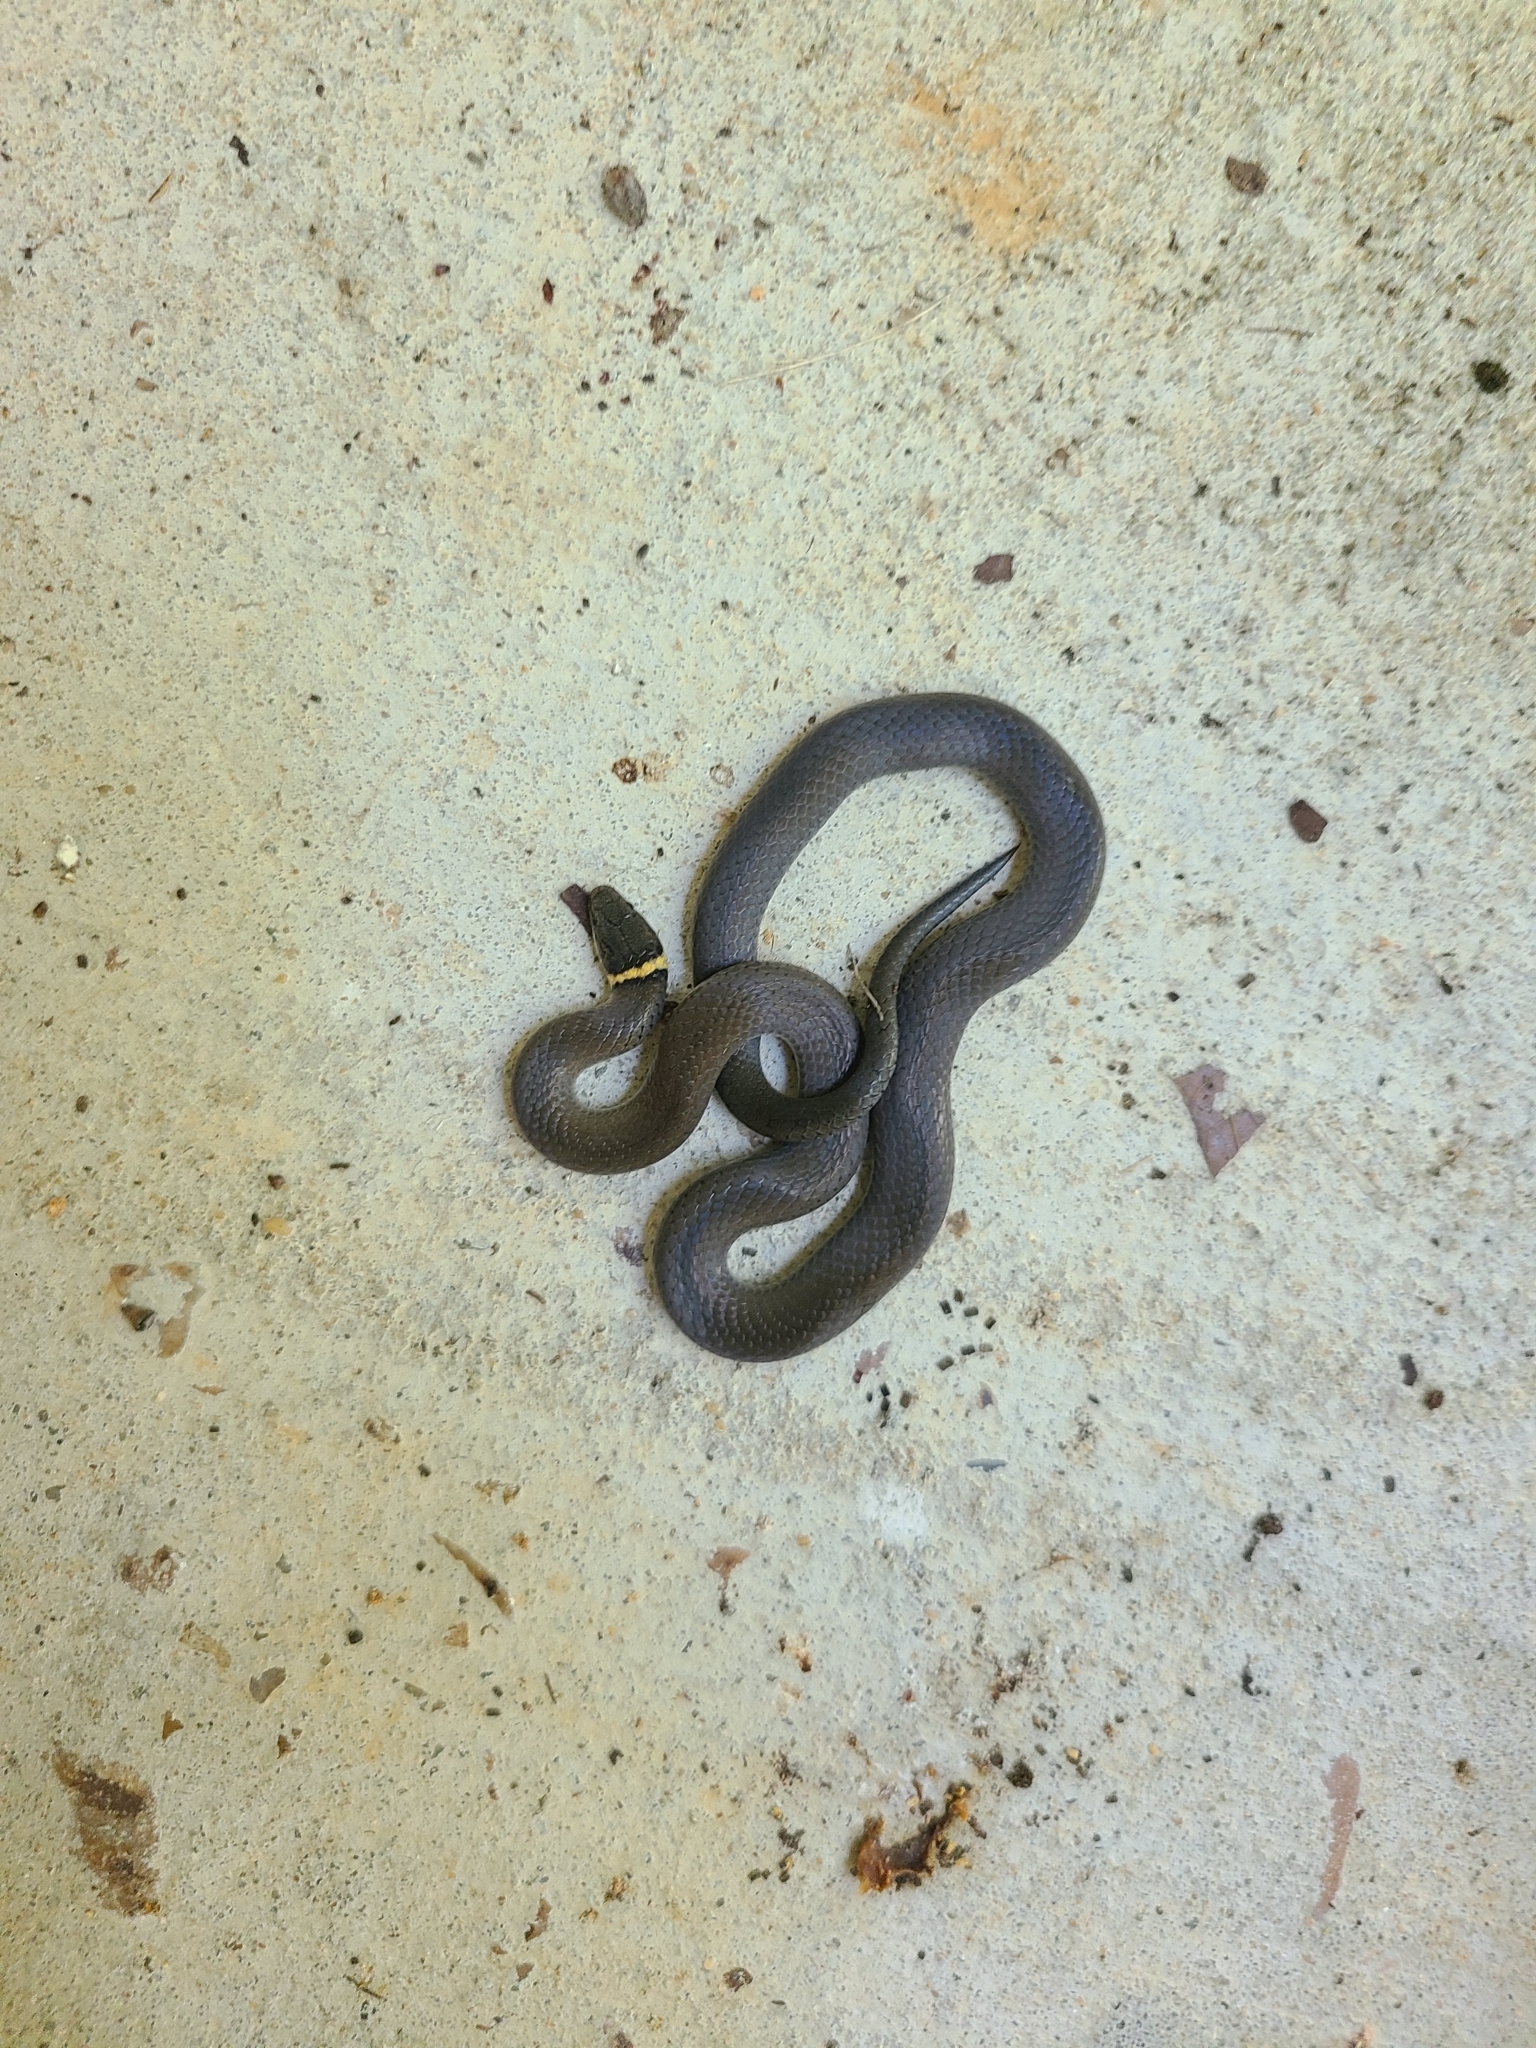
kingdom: Animalia
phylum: Chordata
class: Squamata
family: Colubridae
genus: Diadophis
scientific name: Diadophis punctatus
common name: Ringneck snake
